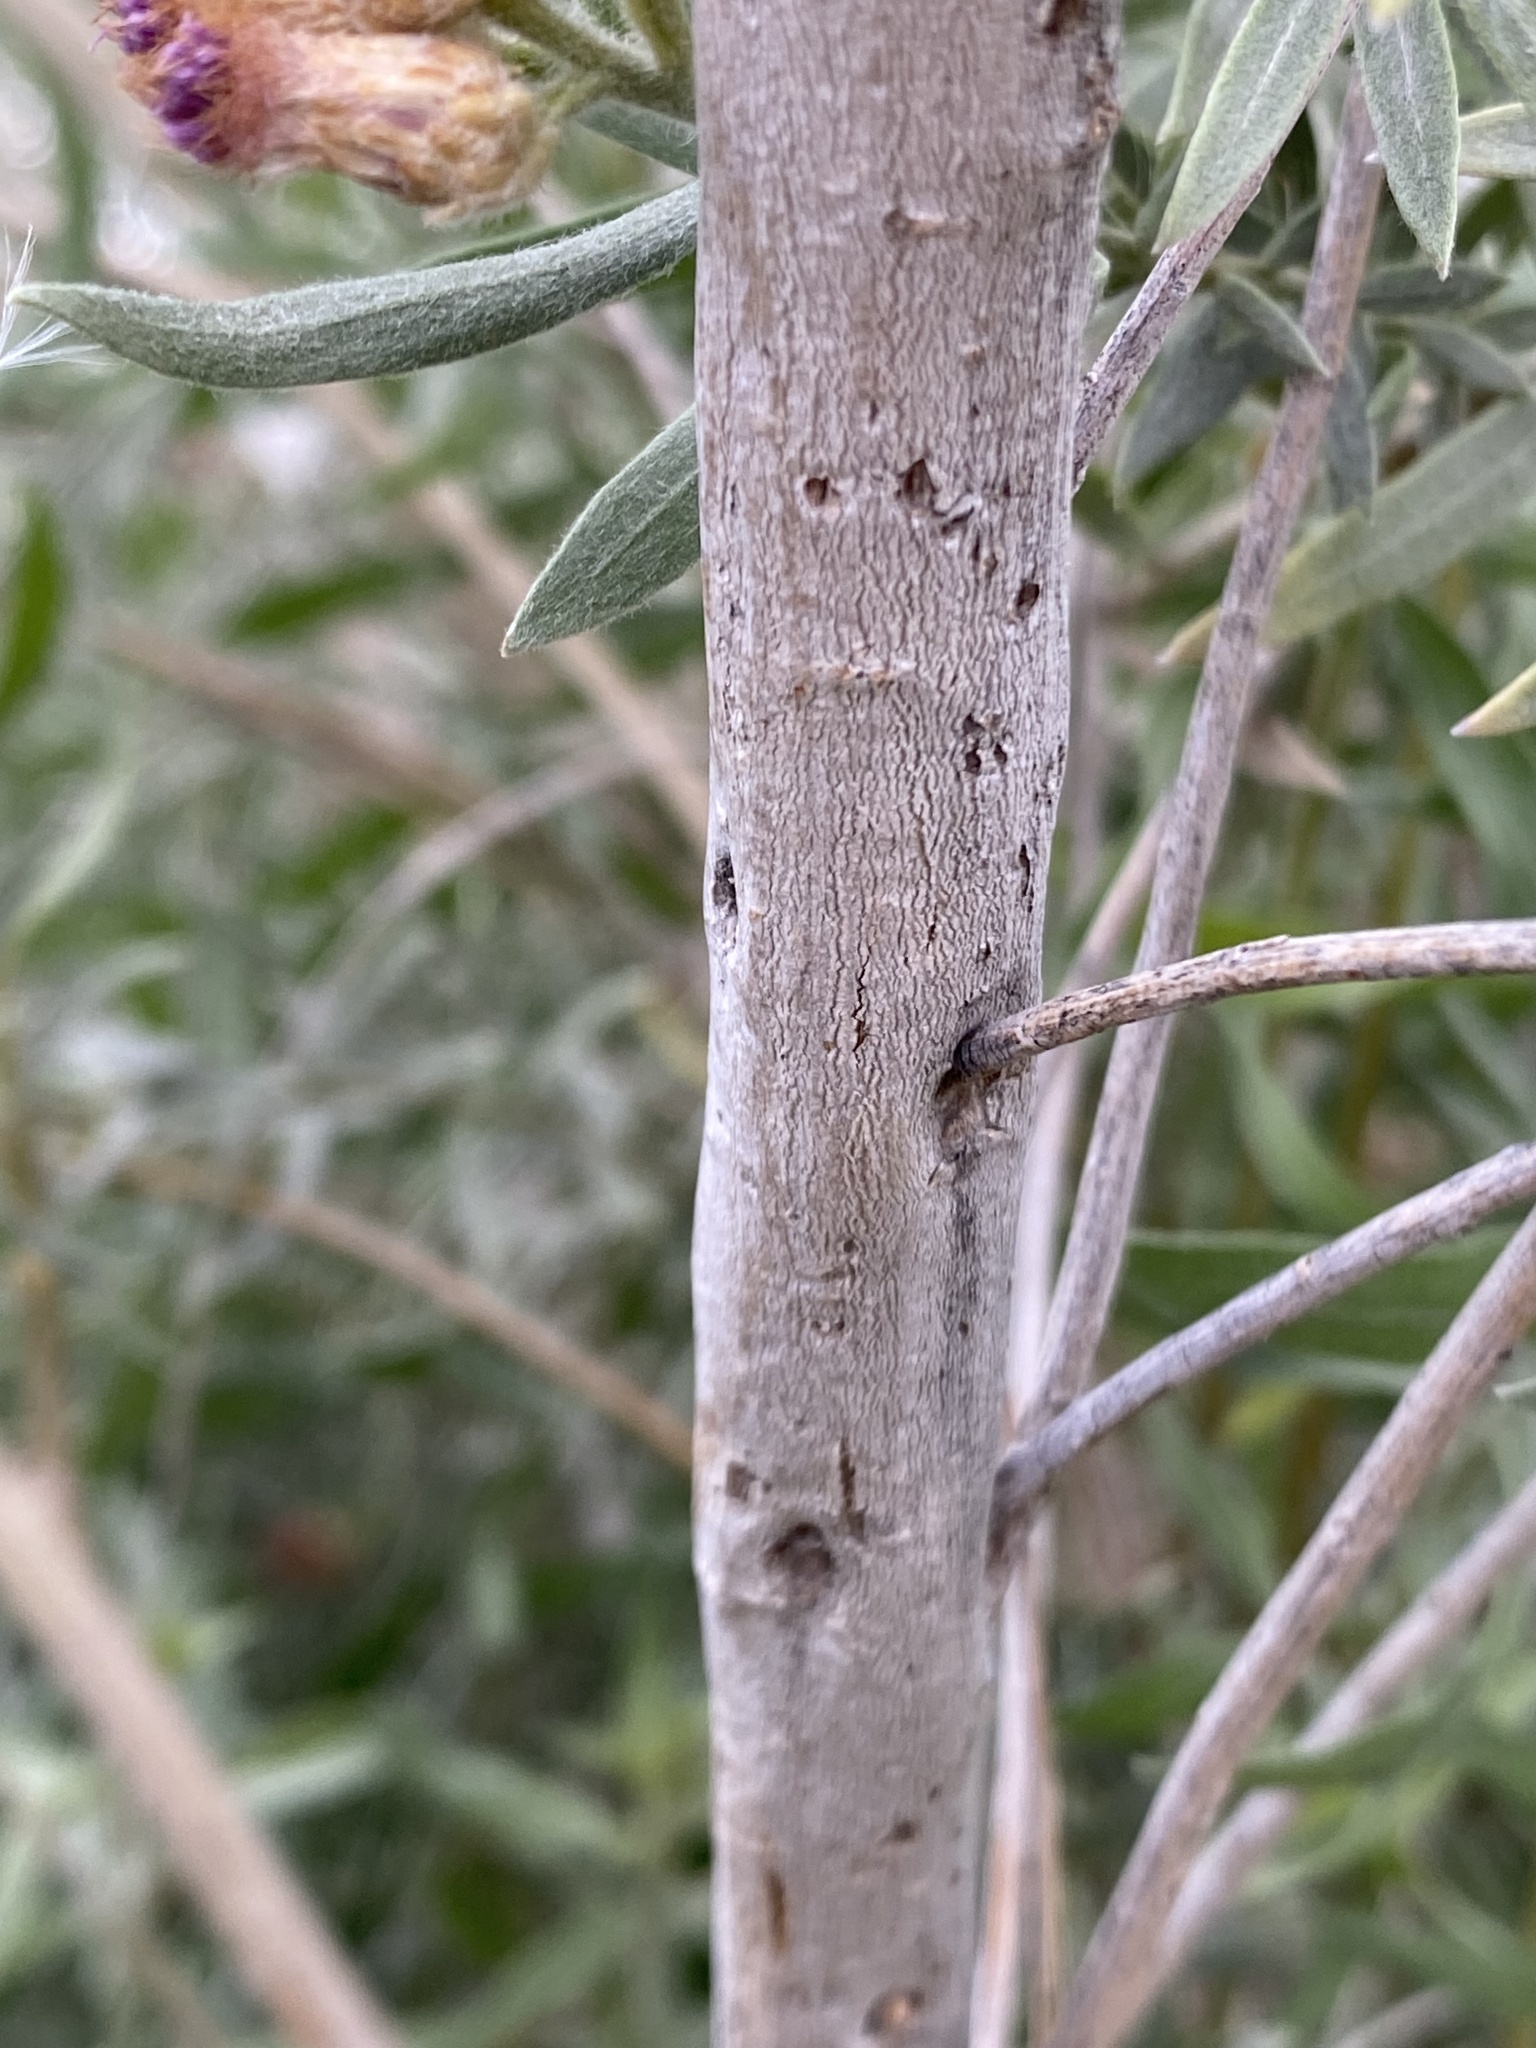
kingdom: Plantae
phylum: Tracheophyta
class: Magnoliopsida
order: Asterales
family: Asteraceae
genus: Pluchea
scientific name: Pluchea sericea
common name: Arrow-weed
